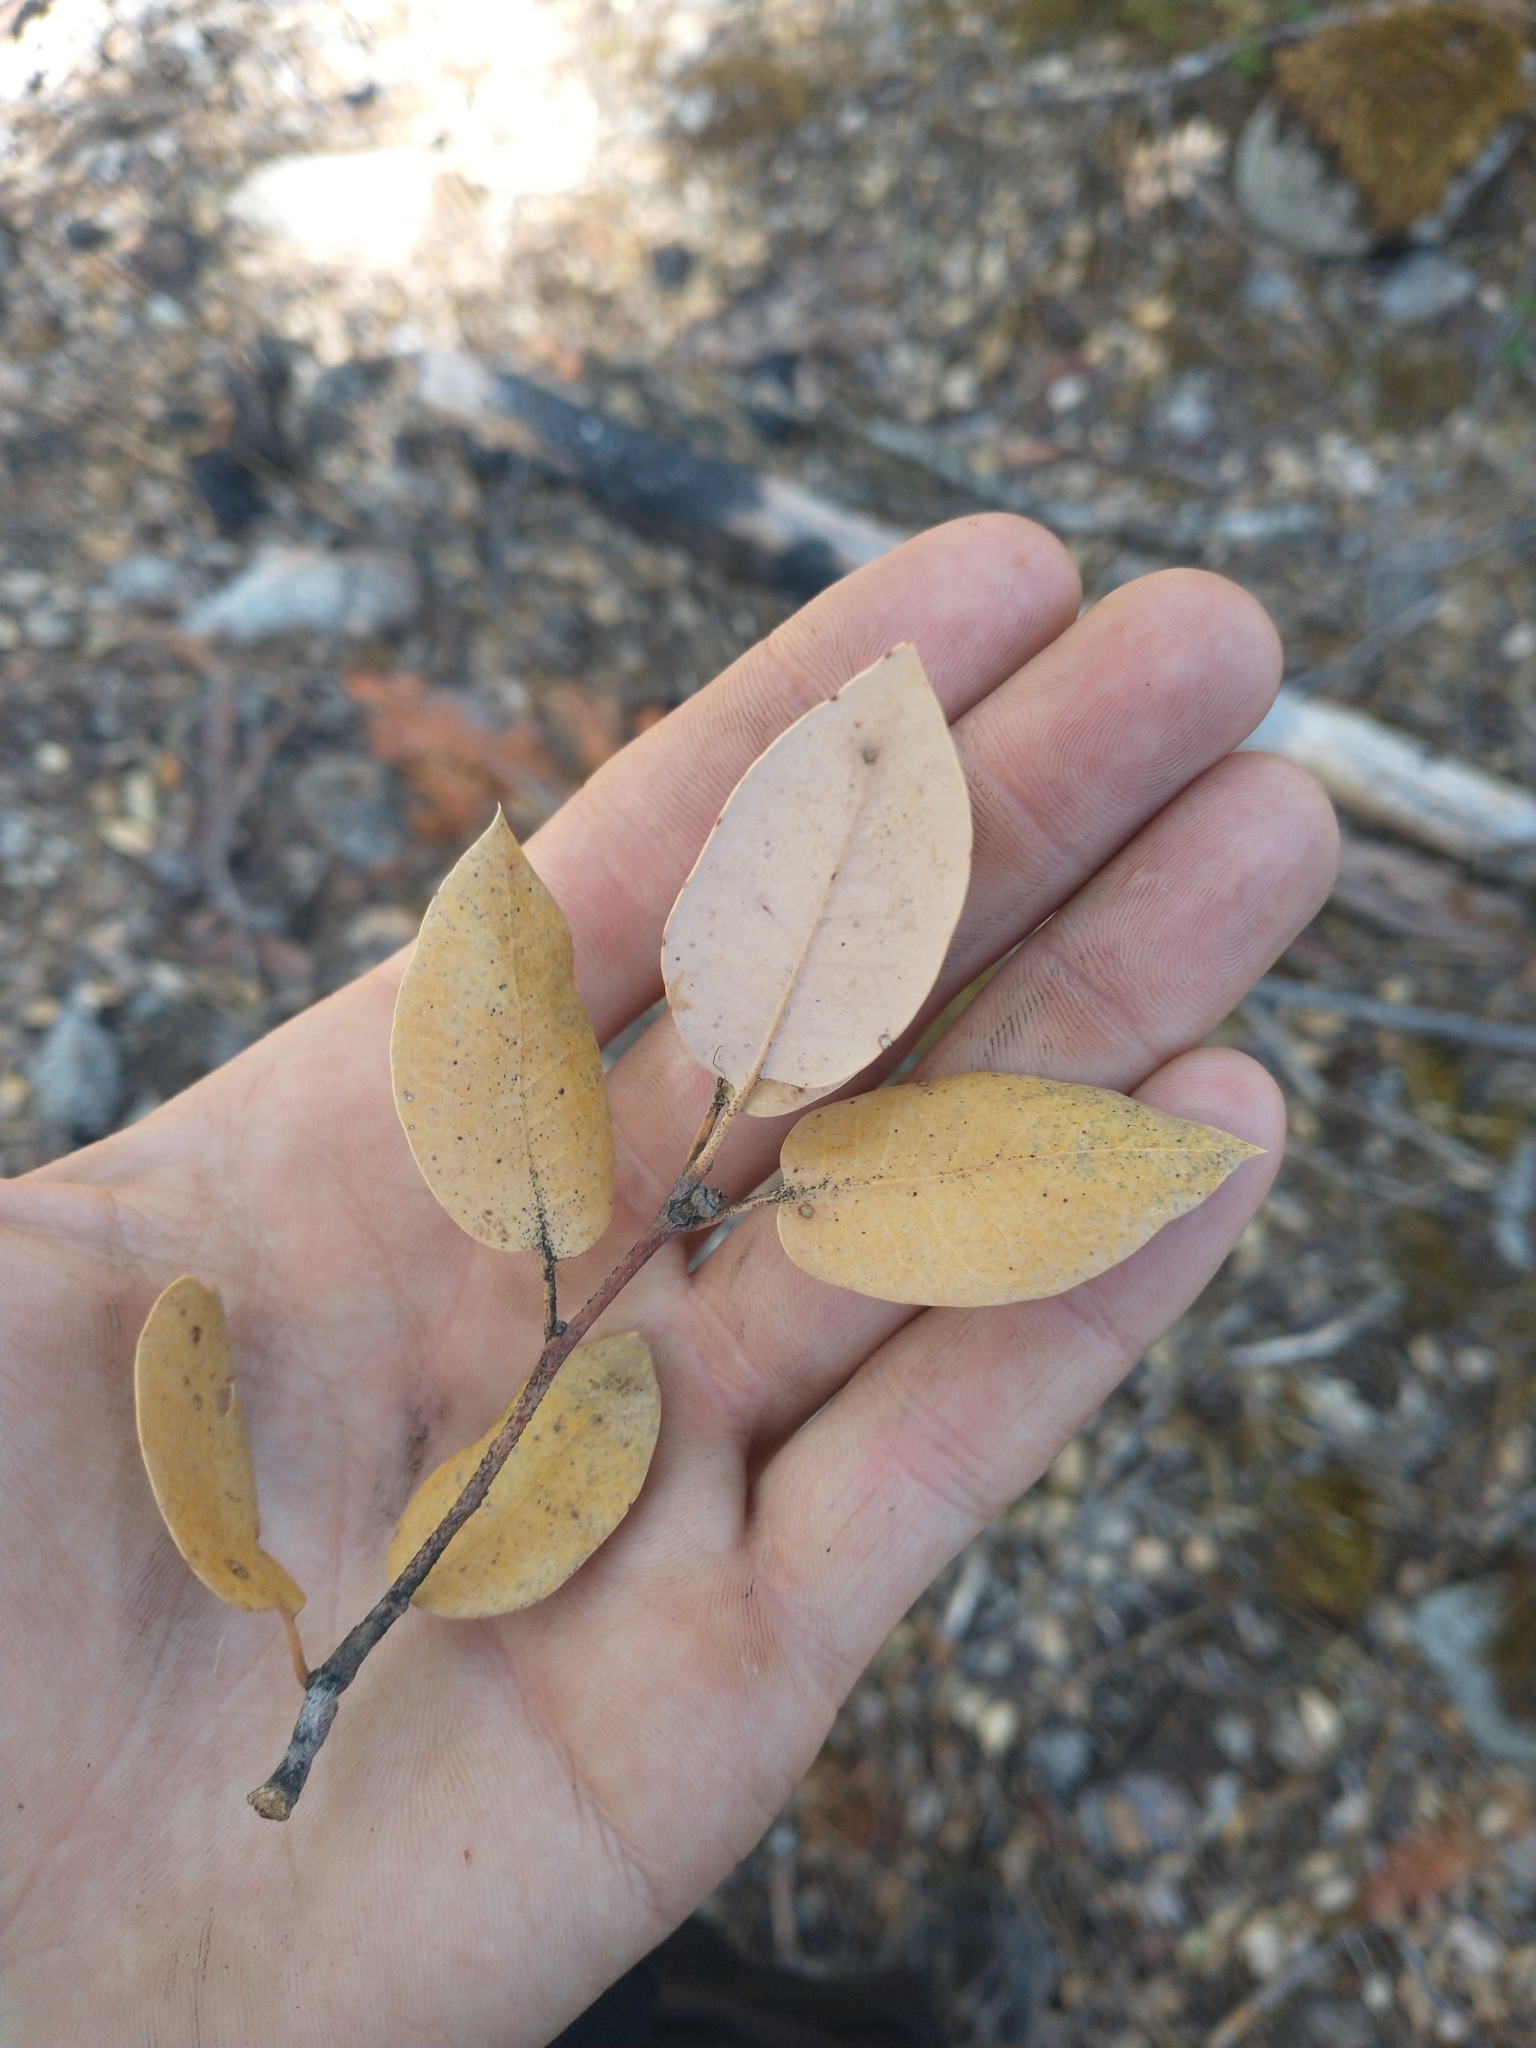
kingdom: Plantae
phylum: Tracheophyta
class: Magnoliopsida
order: Fagales
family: Fagaceae
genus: Quercus
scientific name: Quercus chrysolepis
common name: Canyon live oak
